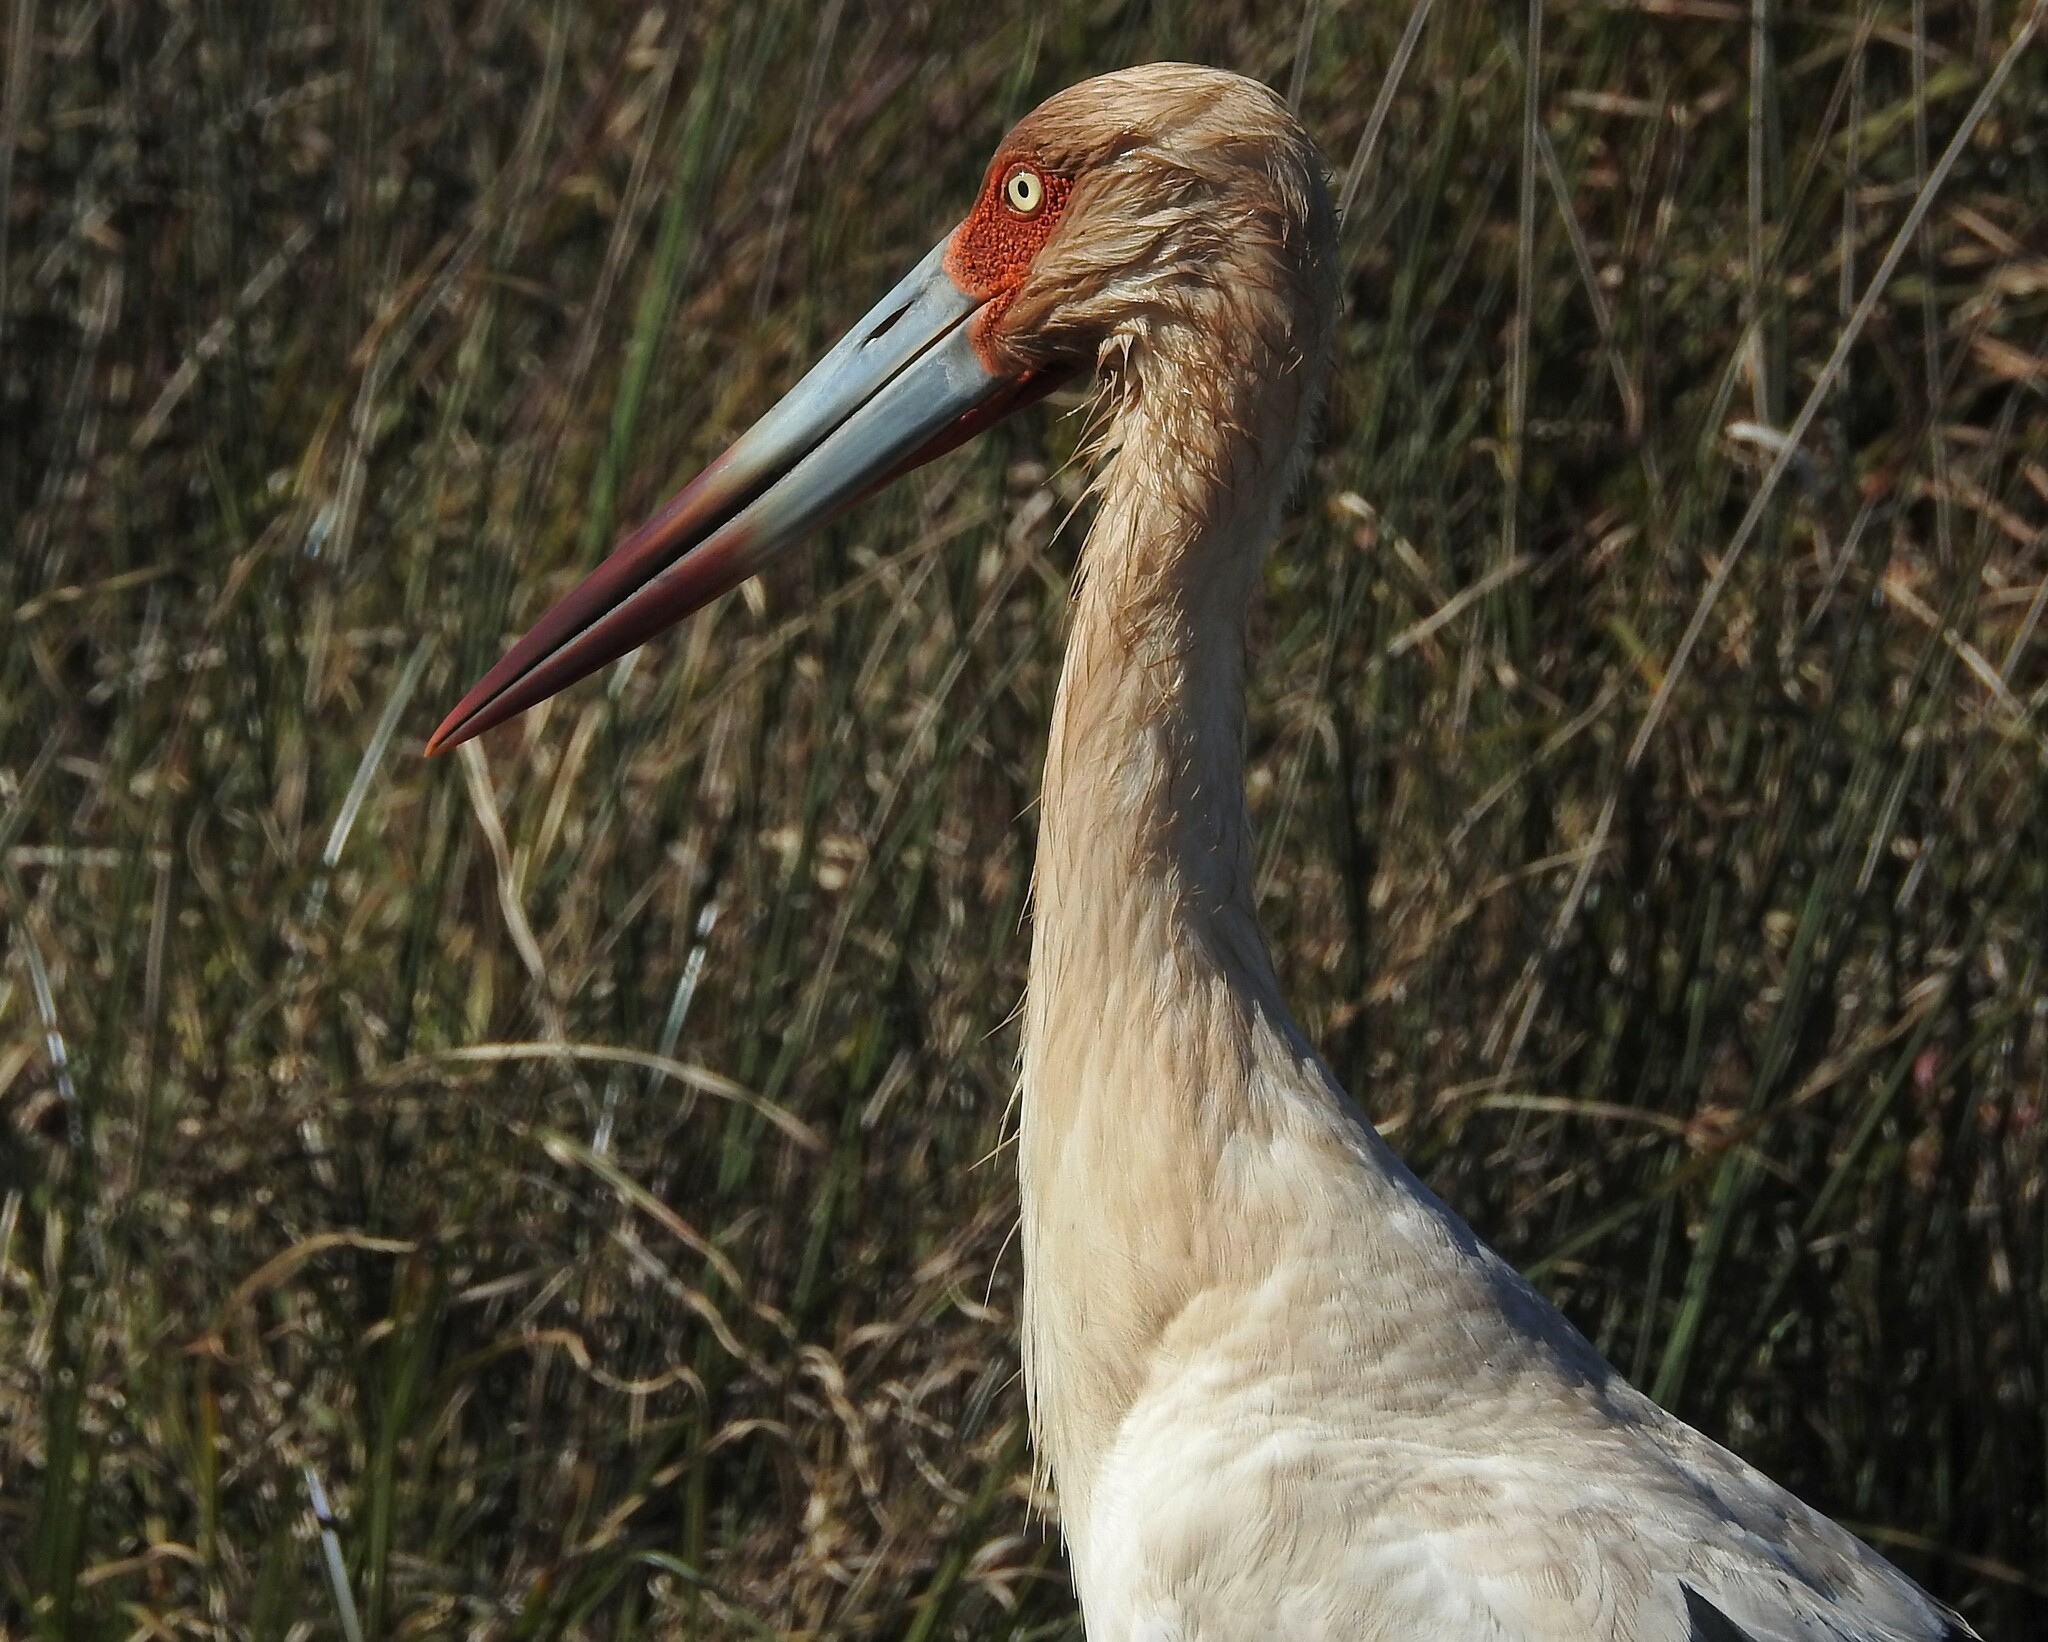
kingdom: Animalia
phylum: Chordata
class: Aves
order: Ciconiiformes
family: Ciconiidae
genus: Ciconia
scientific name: Ciconia maguari
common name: Maguari stork
